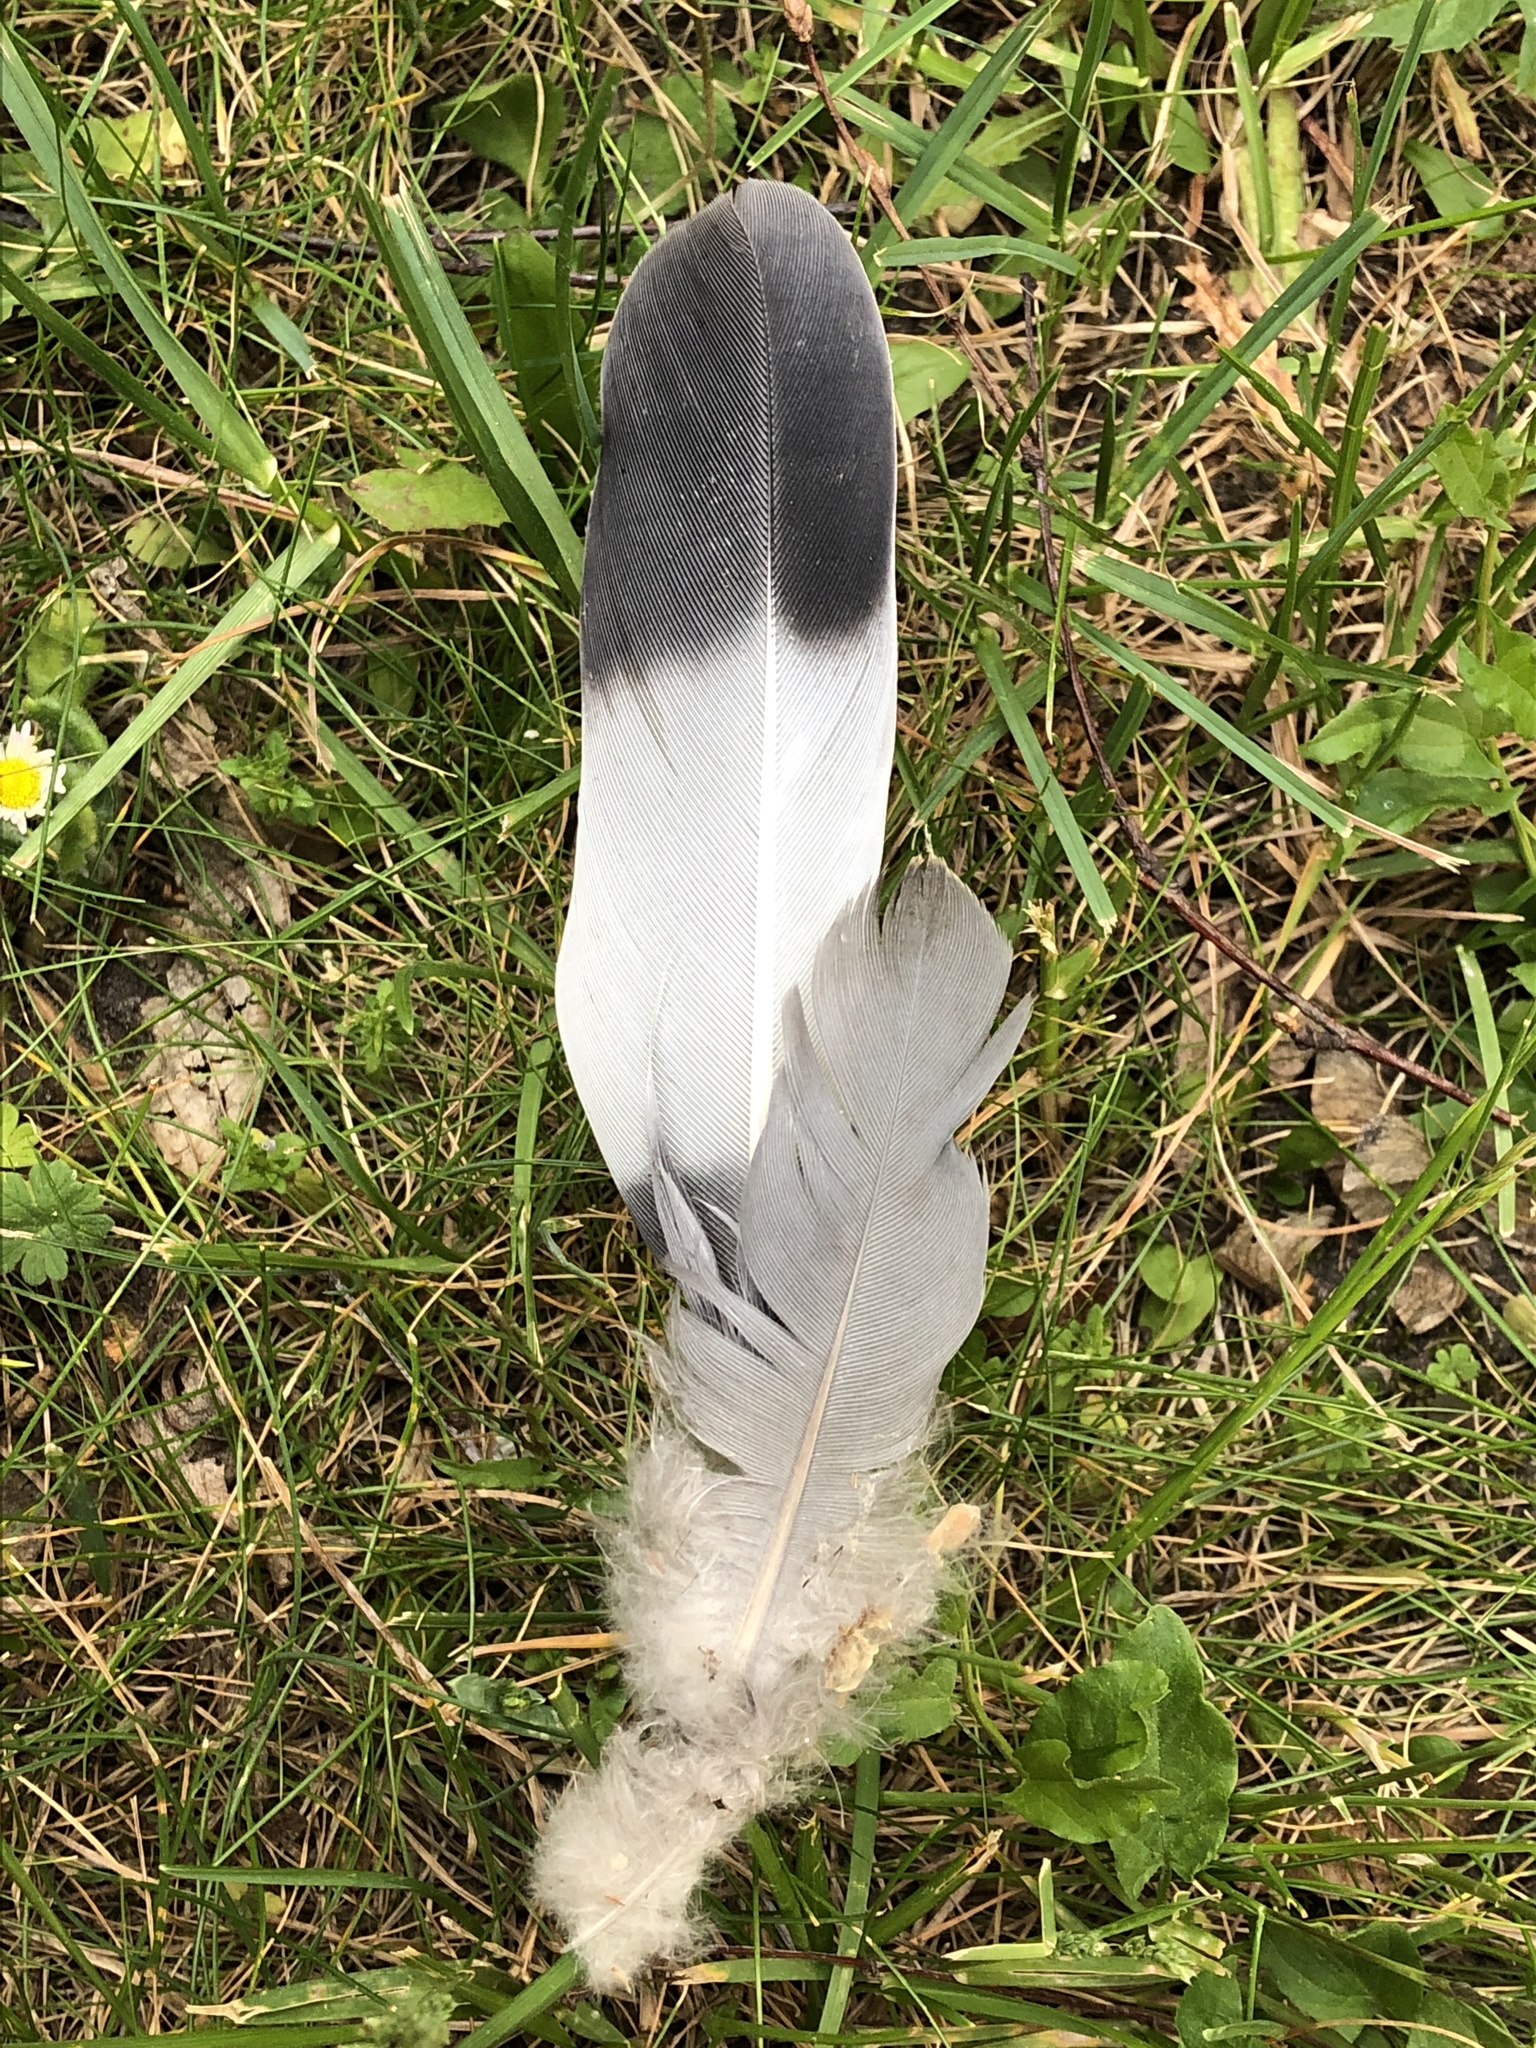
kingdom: Animalia
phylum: Chordata
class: Aves
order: Columbiformes
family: Columbidae
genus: Columba
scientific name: Columba palumbus
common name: Common wood pigeon
